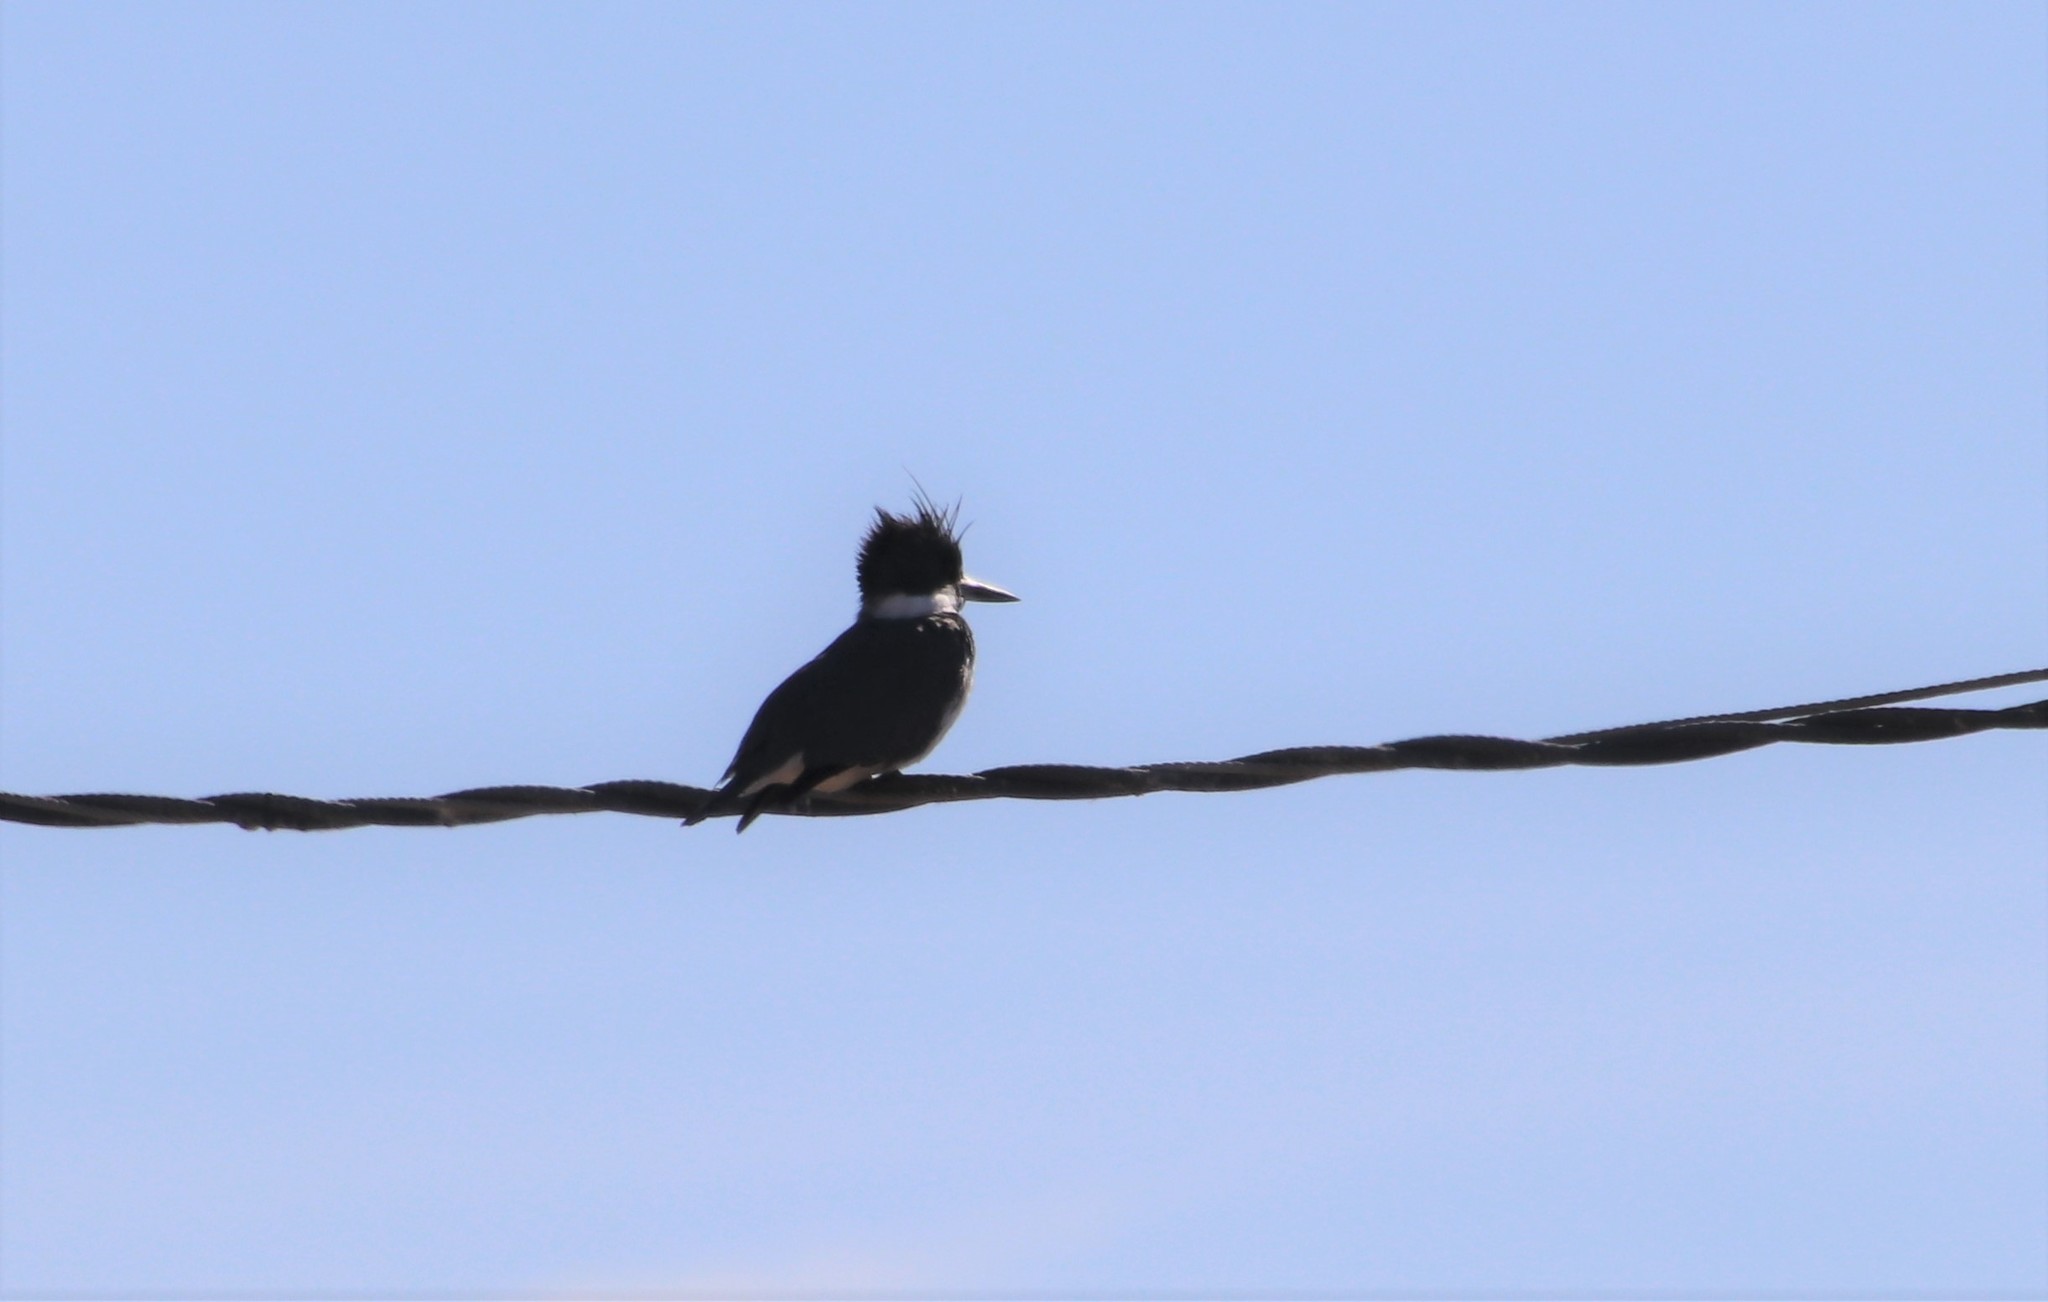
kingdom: Animalia
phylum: Chordata
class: Aves
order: Coraciiformes
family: Alcedinidae
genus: Megaceryle
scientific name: Megaceryle alcyon
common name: Belted kingfisher
